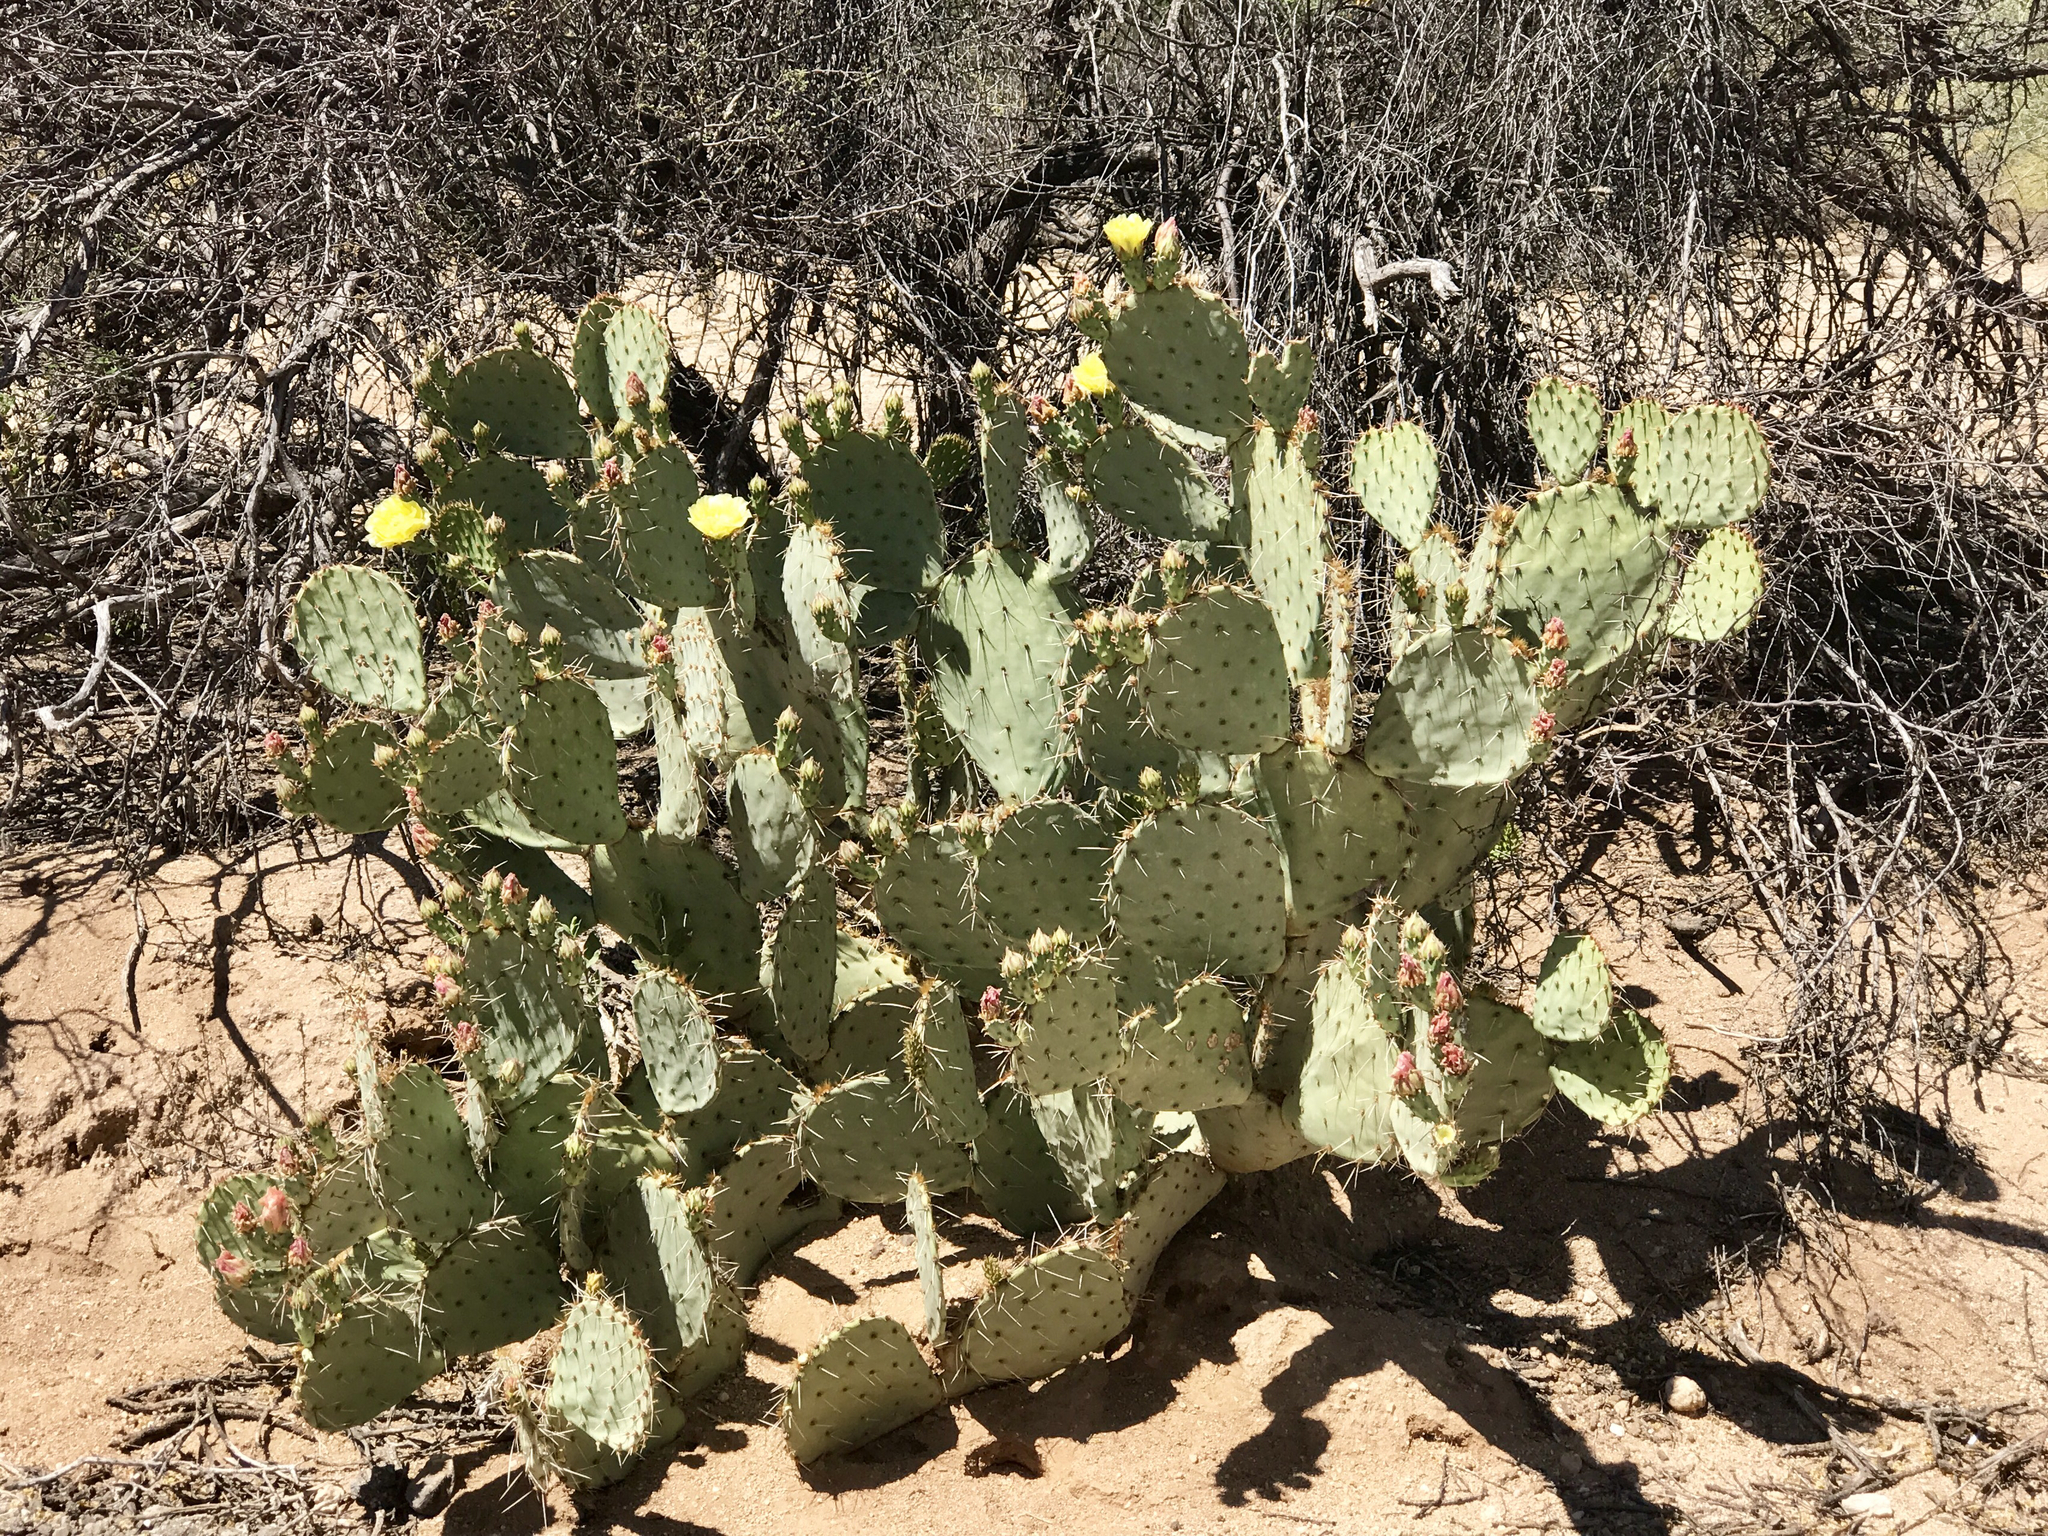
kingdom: Plantae
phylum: Tracheophyta
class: Magnoliopsida
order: Caryophyllales
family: Cactaceae
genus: Opuntia
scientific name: Opuntia engelmannii
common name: Cactus-apple
